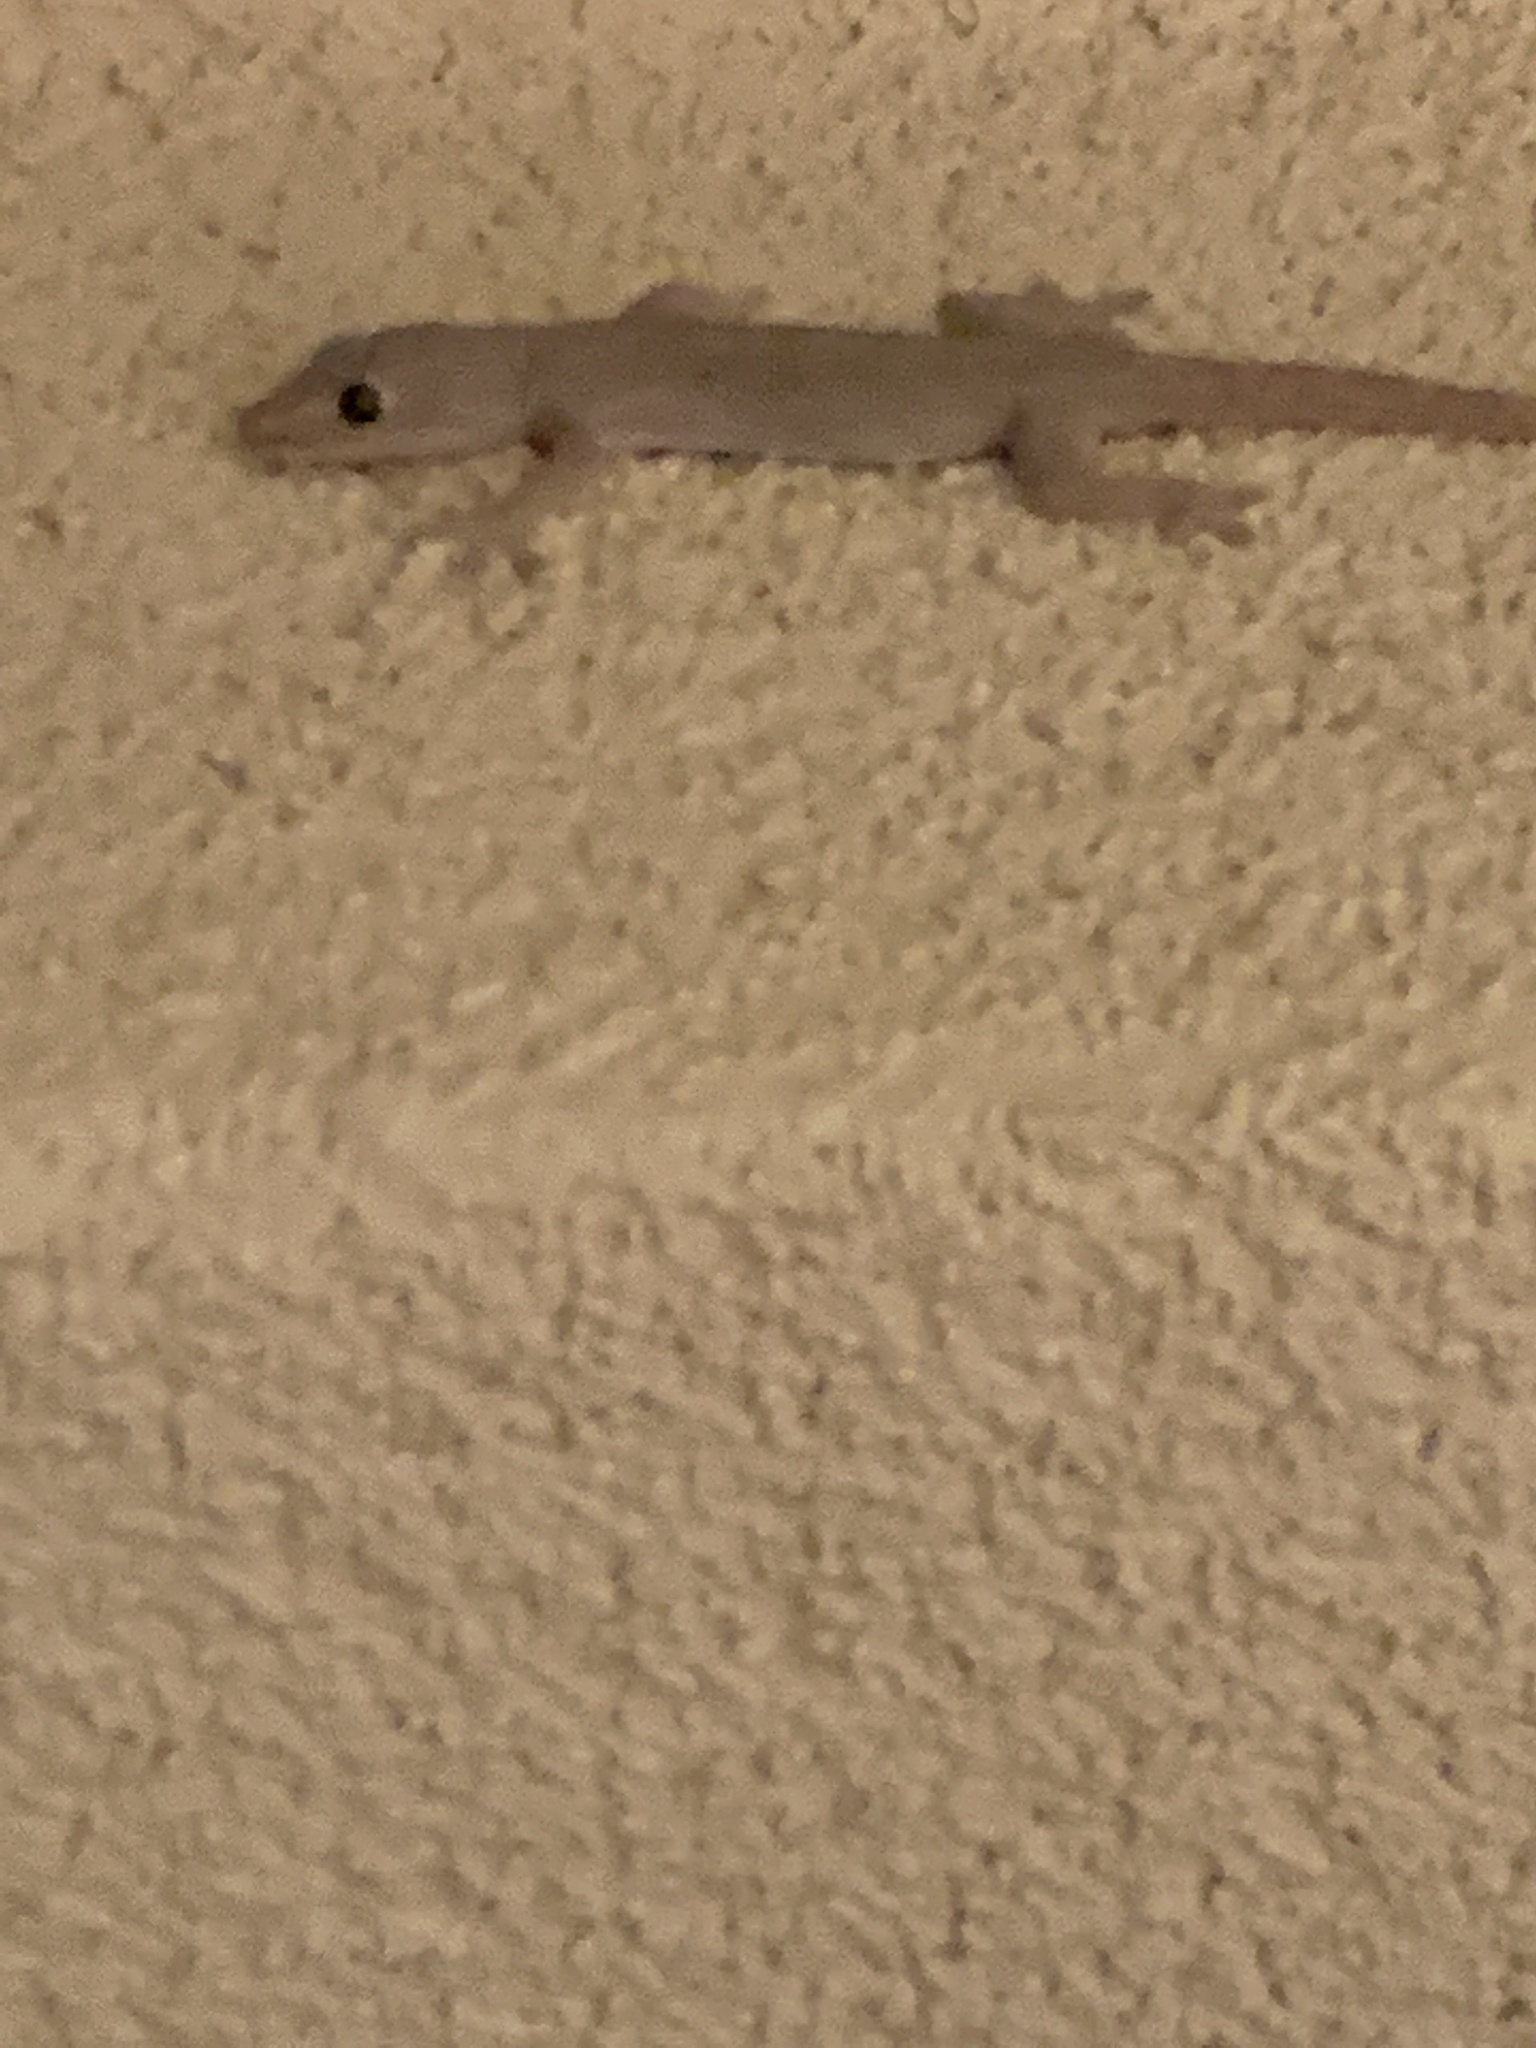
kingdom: Animalia
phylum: Chordata
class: Squamata
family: Gekkonidae
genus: Hemidactylus
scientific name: Hemidactylus frenatus
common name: Common house gecko
